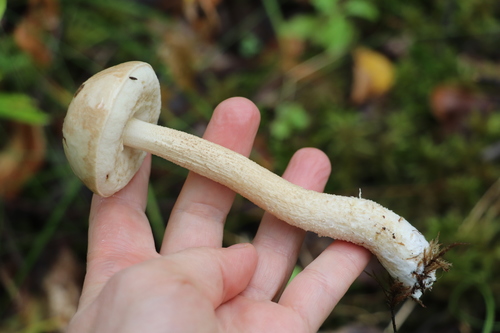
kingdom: Fungi
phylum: Basidiomycota
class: Agaricomycetes
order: Boletales
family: Boletaceae
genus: Leccinum
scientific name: Leccinum holopus
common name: Ghost bolete
